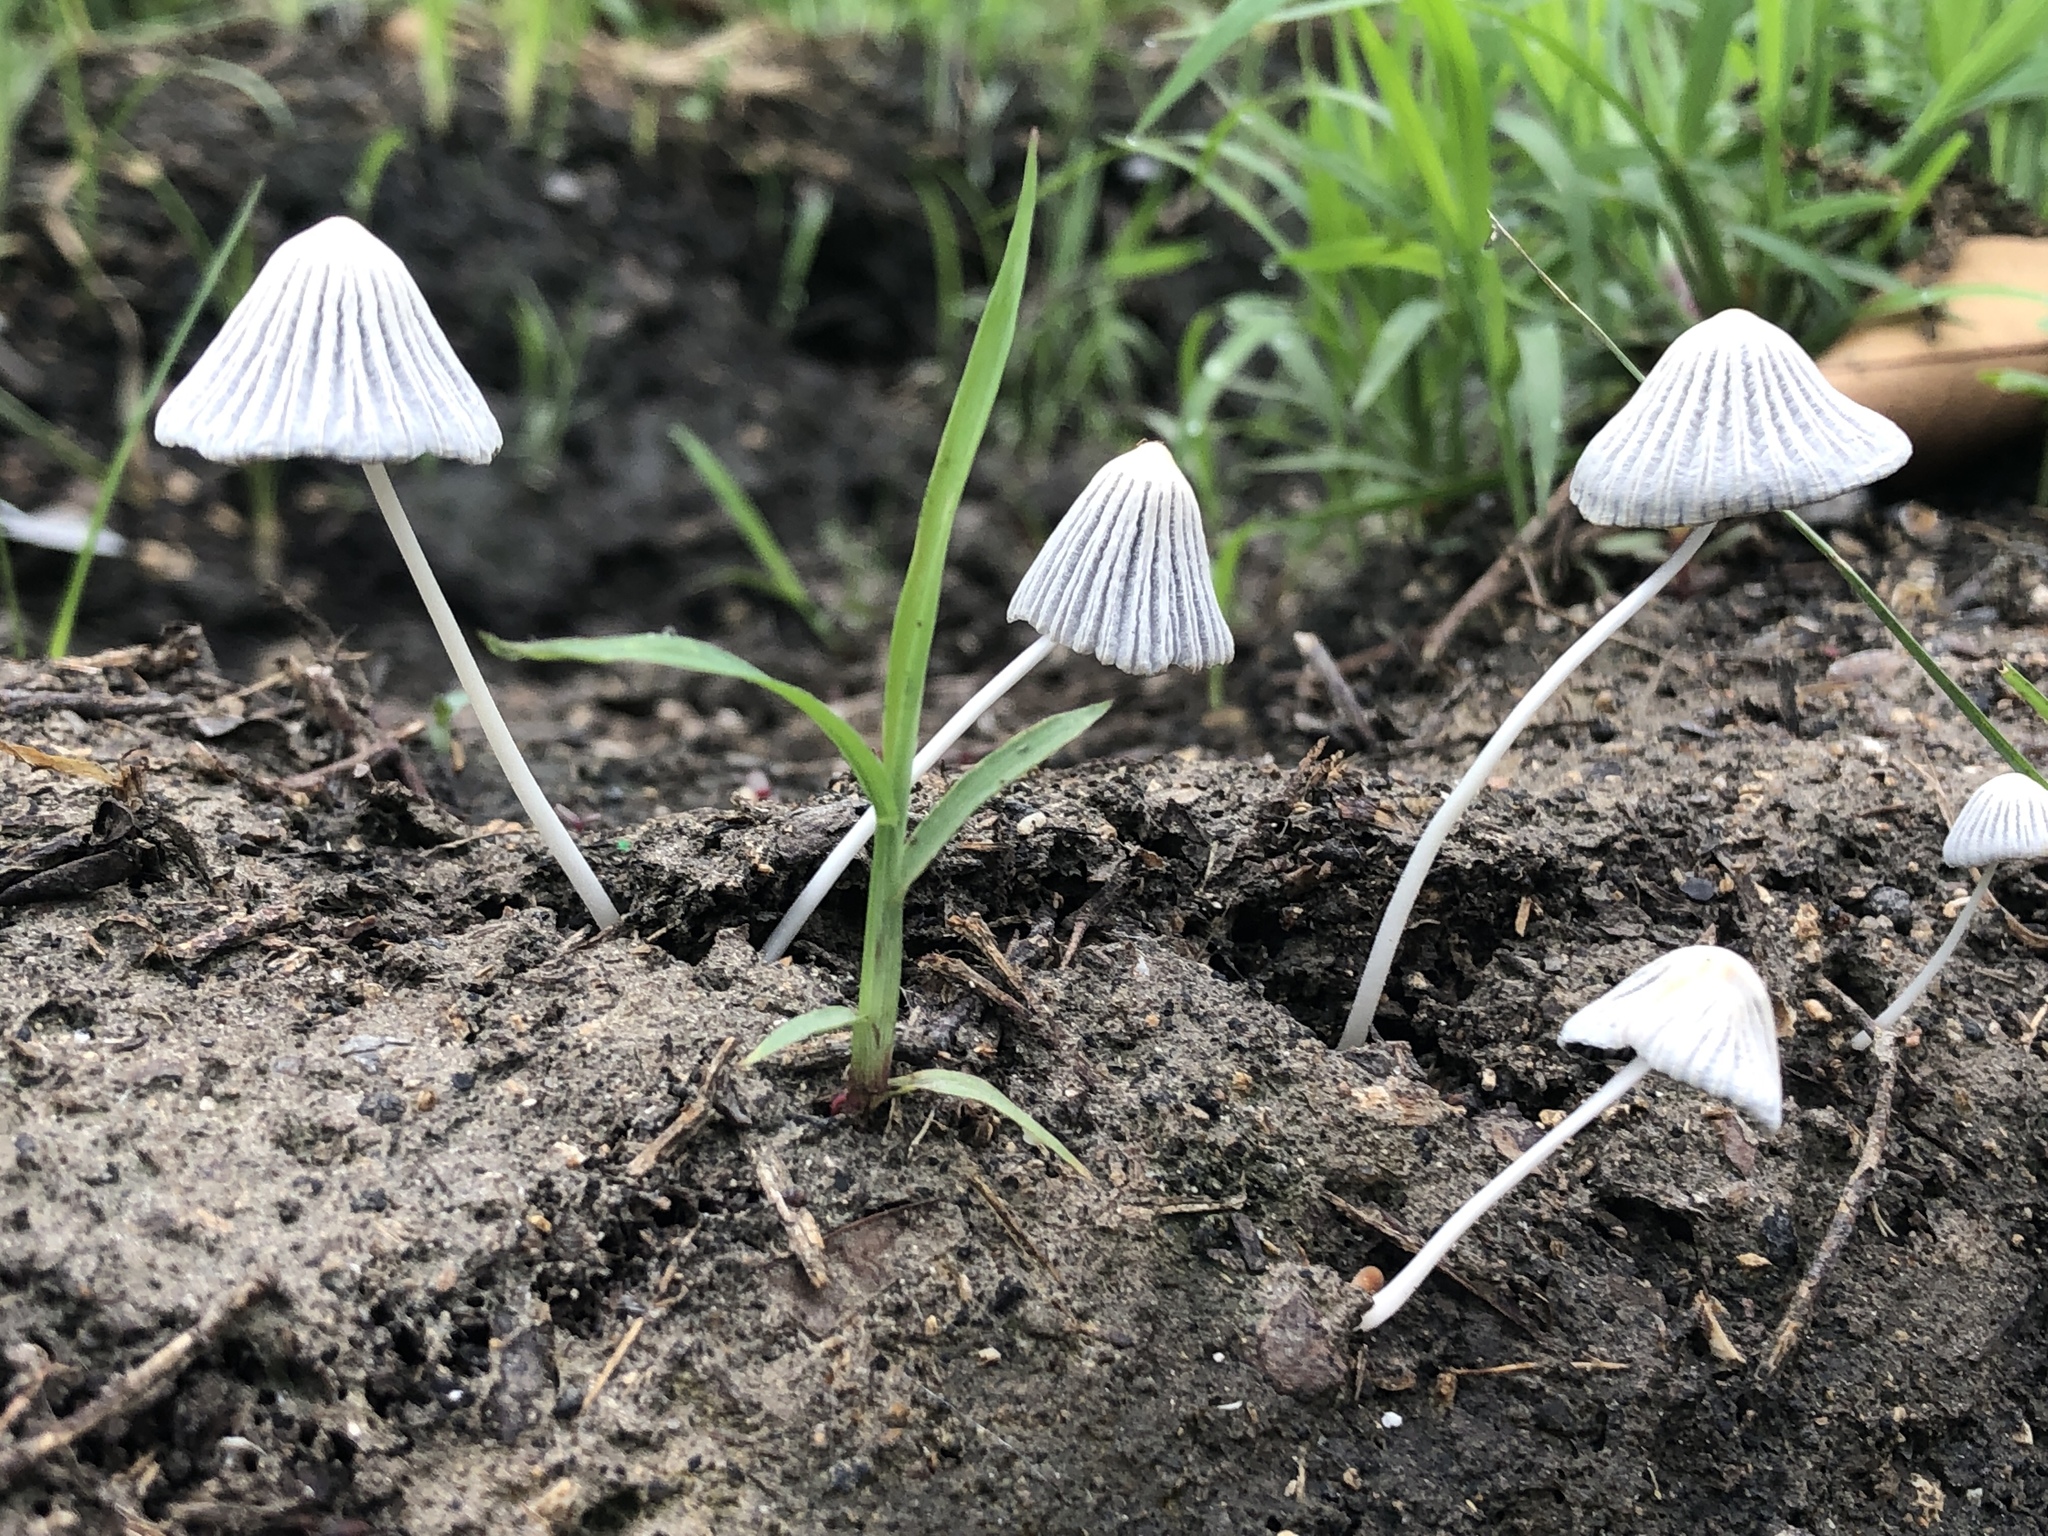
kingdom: Fungi
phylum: Basidiomycota
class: Agaricomycetes
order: Agaricales
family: Psathyrellaceae
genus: Parasola
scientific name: Parasola plicatilis
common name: Pleated inkcap
